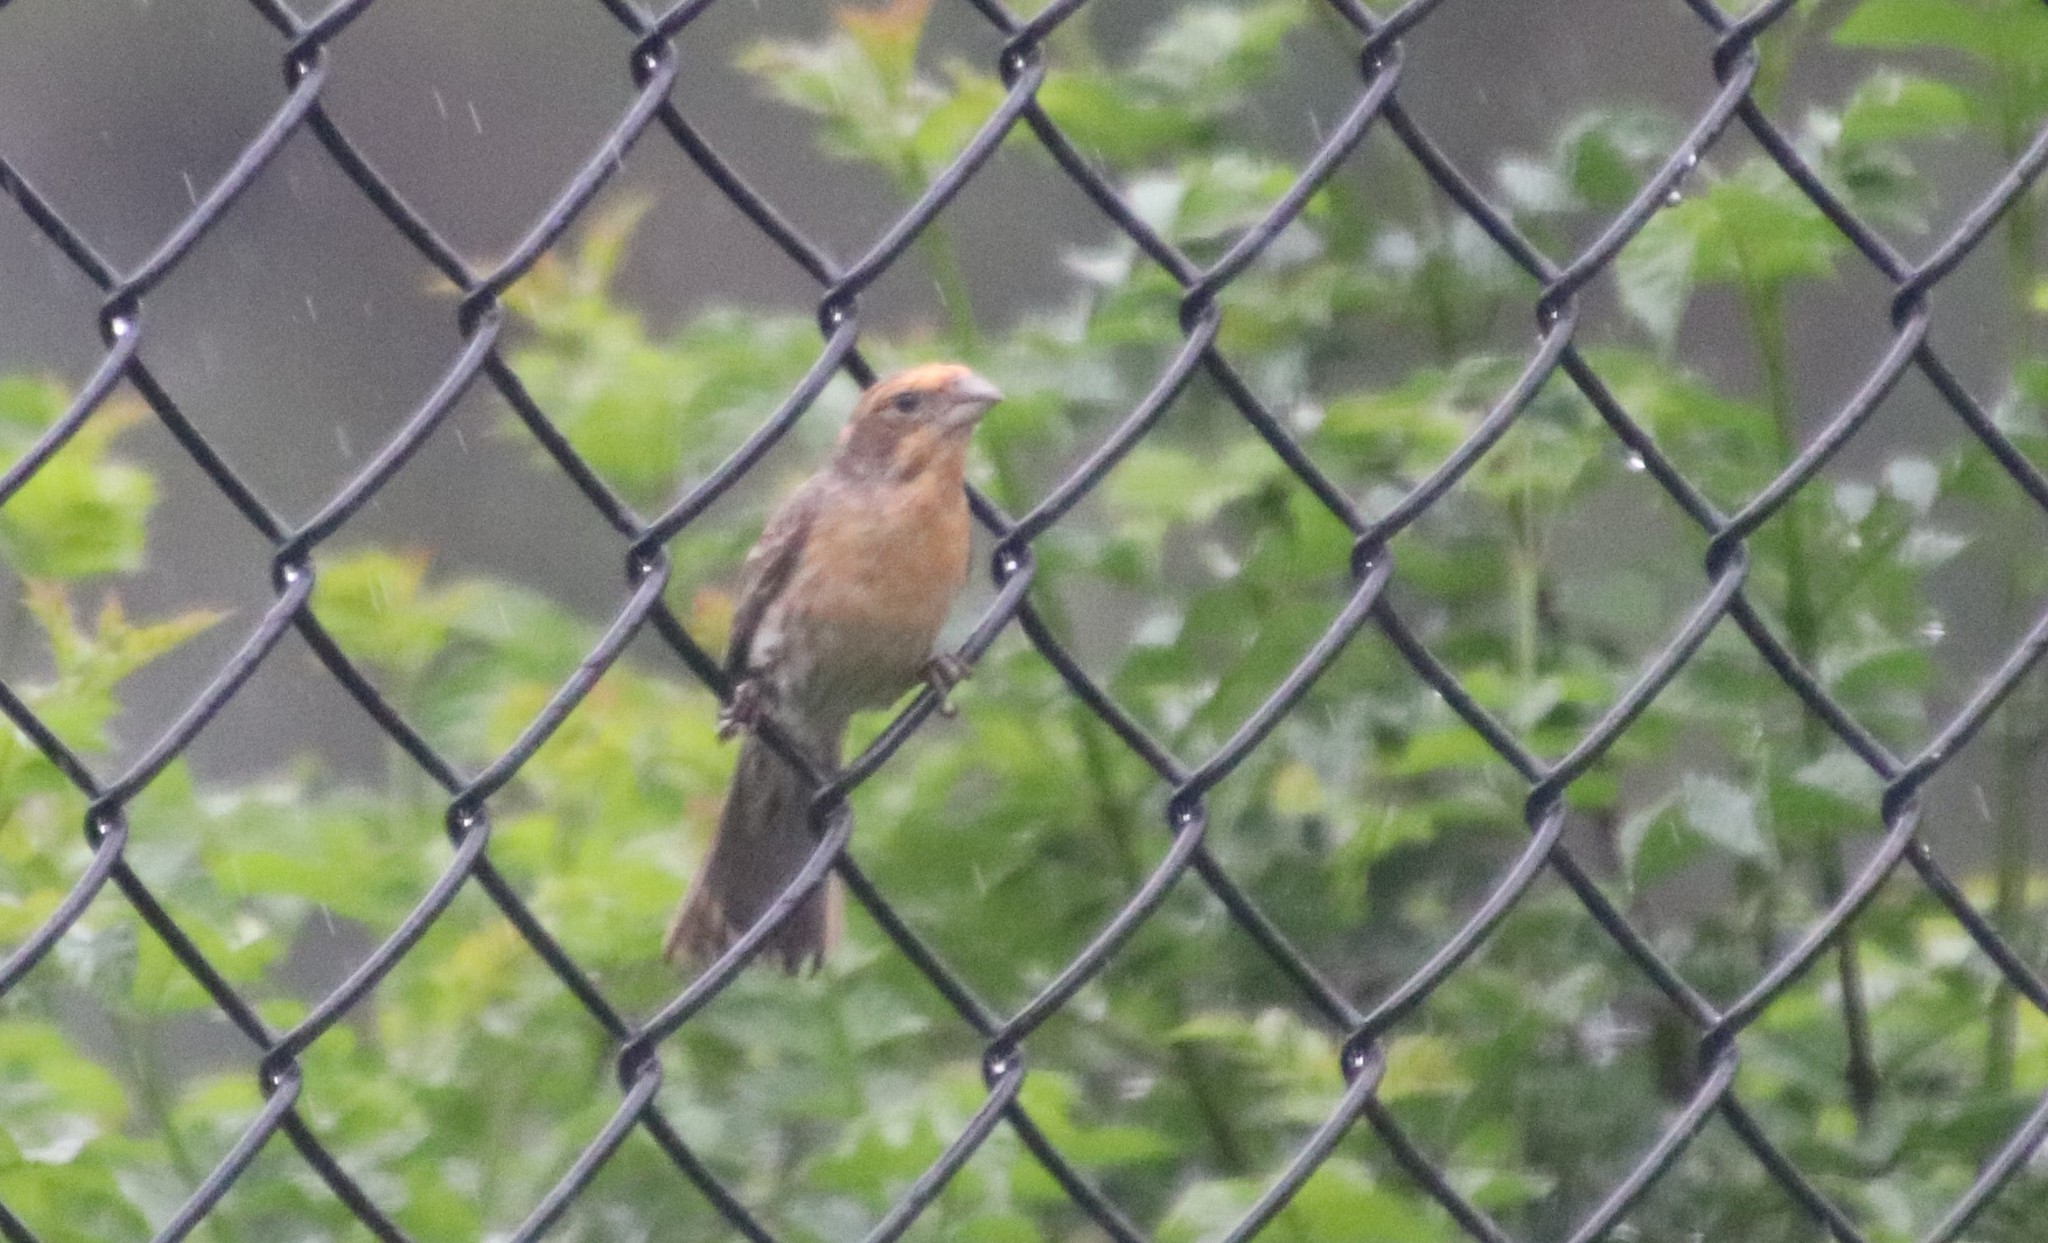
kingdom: Animalia
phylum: Chordata
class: Aves
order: Passeriformes
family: Fringillidae
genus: Haemorhous
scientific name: Haemorhous mexicanus
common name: House finch
